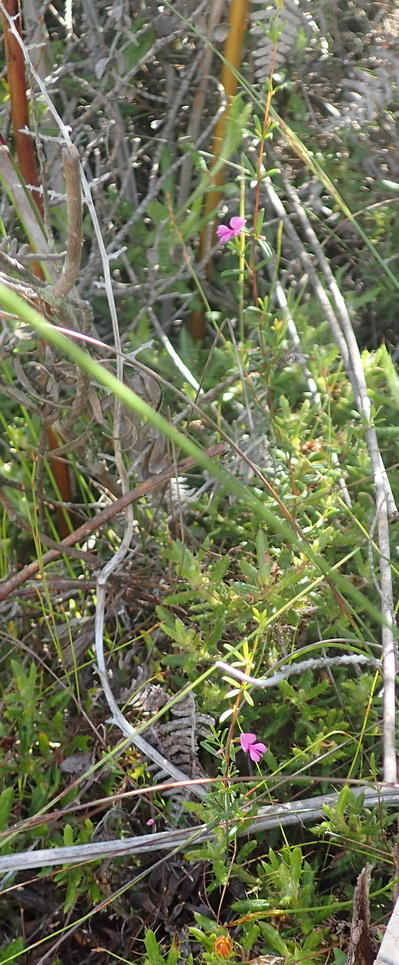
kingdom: Plantae
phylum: Tracheophyta
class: Magnoliopsida
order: Fabales
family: Fabaceae
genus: Indigofera
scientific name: Indigofera setosa
